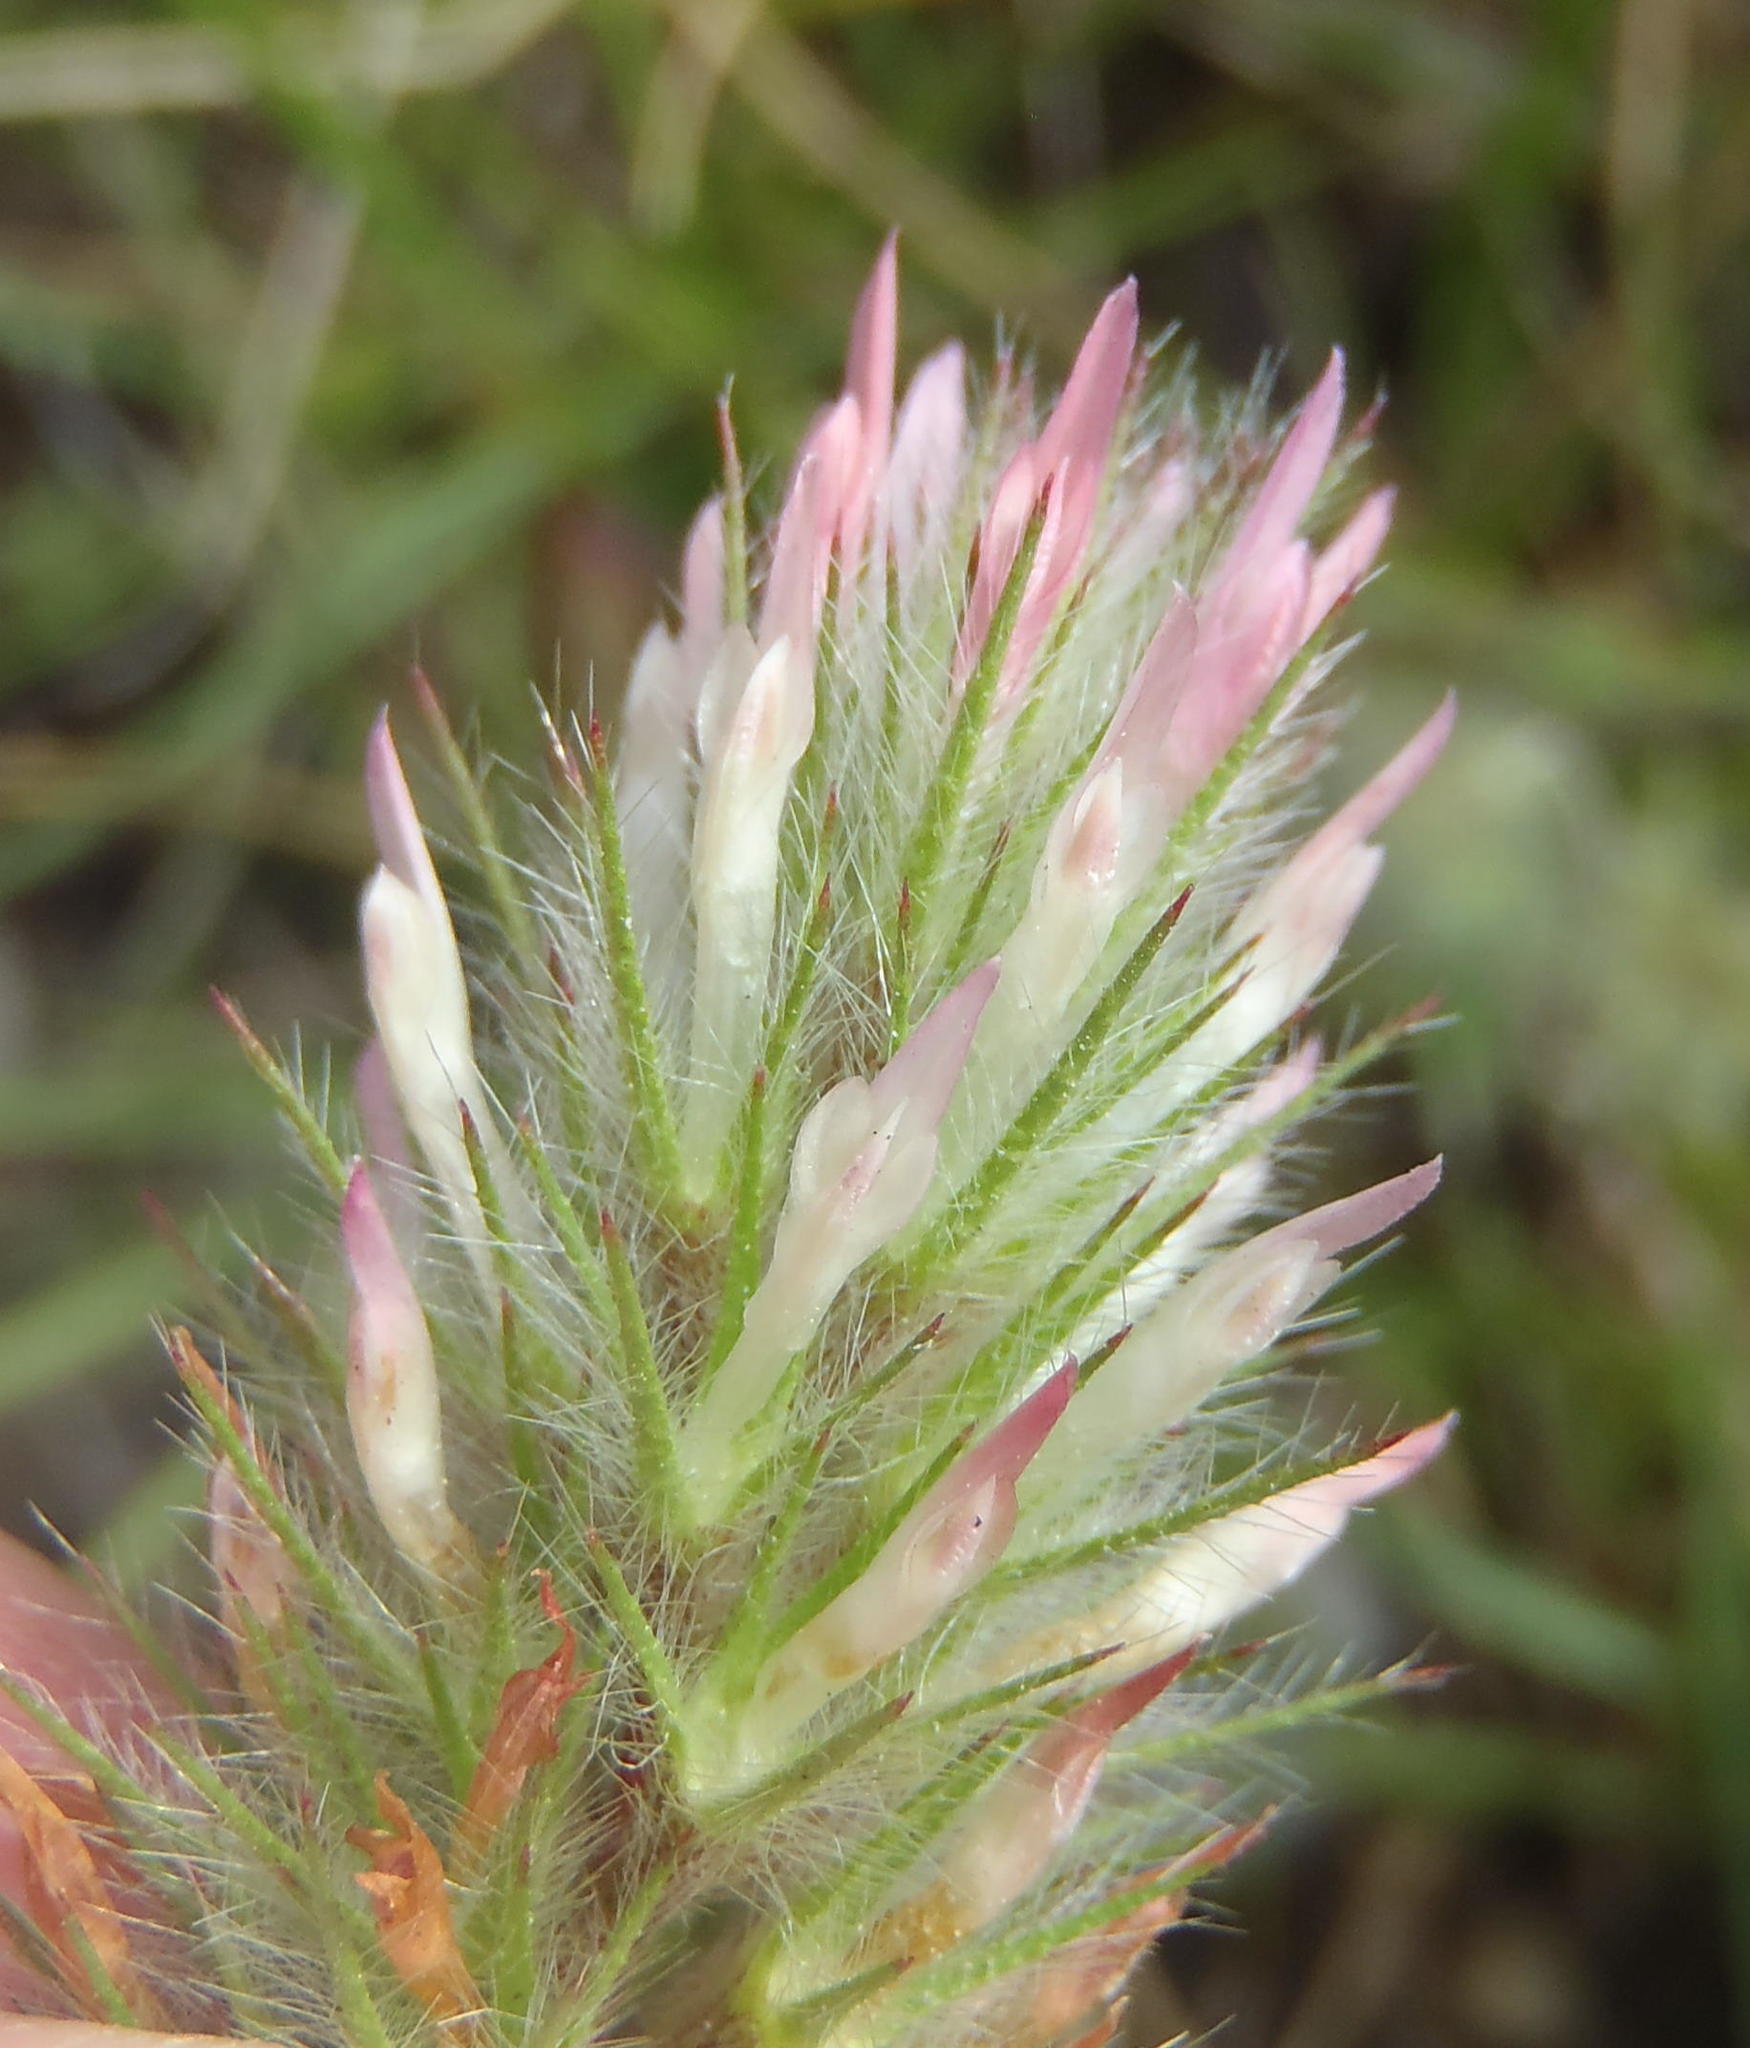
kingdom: Plantae
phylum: Tracheophyta
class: Magnoliopsida
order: Fabales
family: Fabaceae
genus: Trifolium
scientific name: Trifolium angustifolium
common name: Narrow clover
